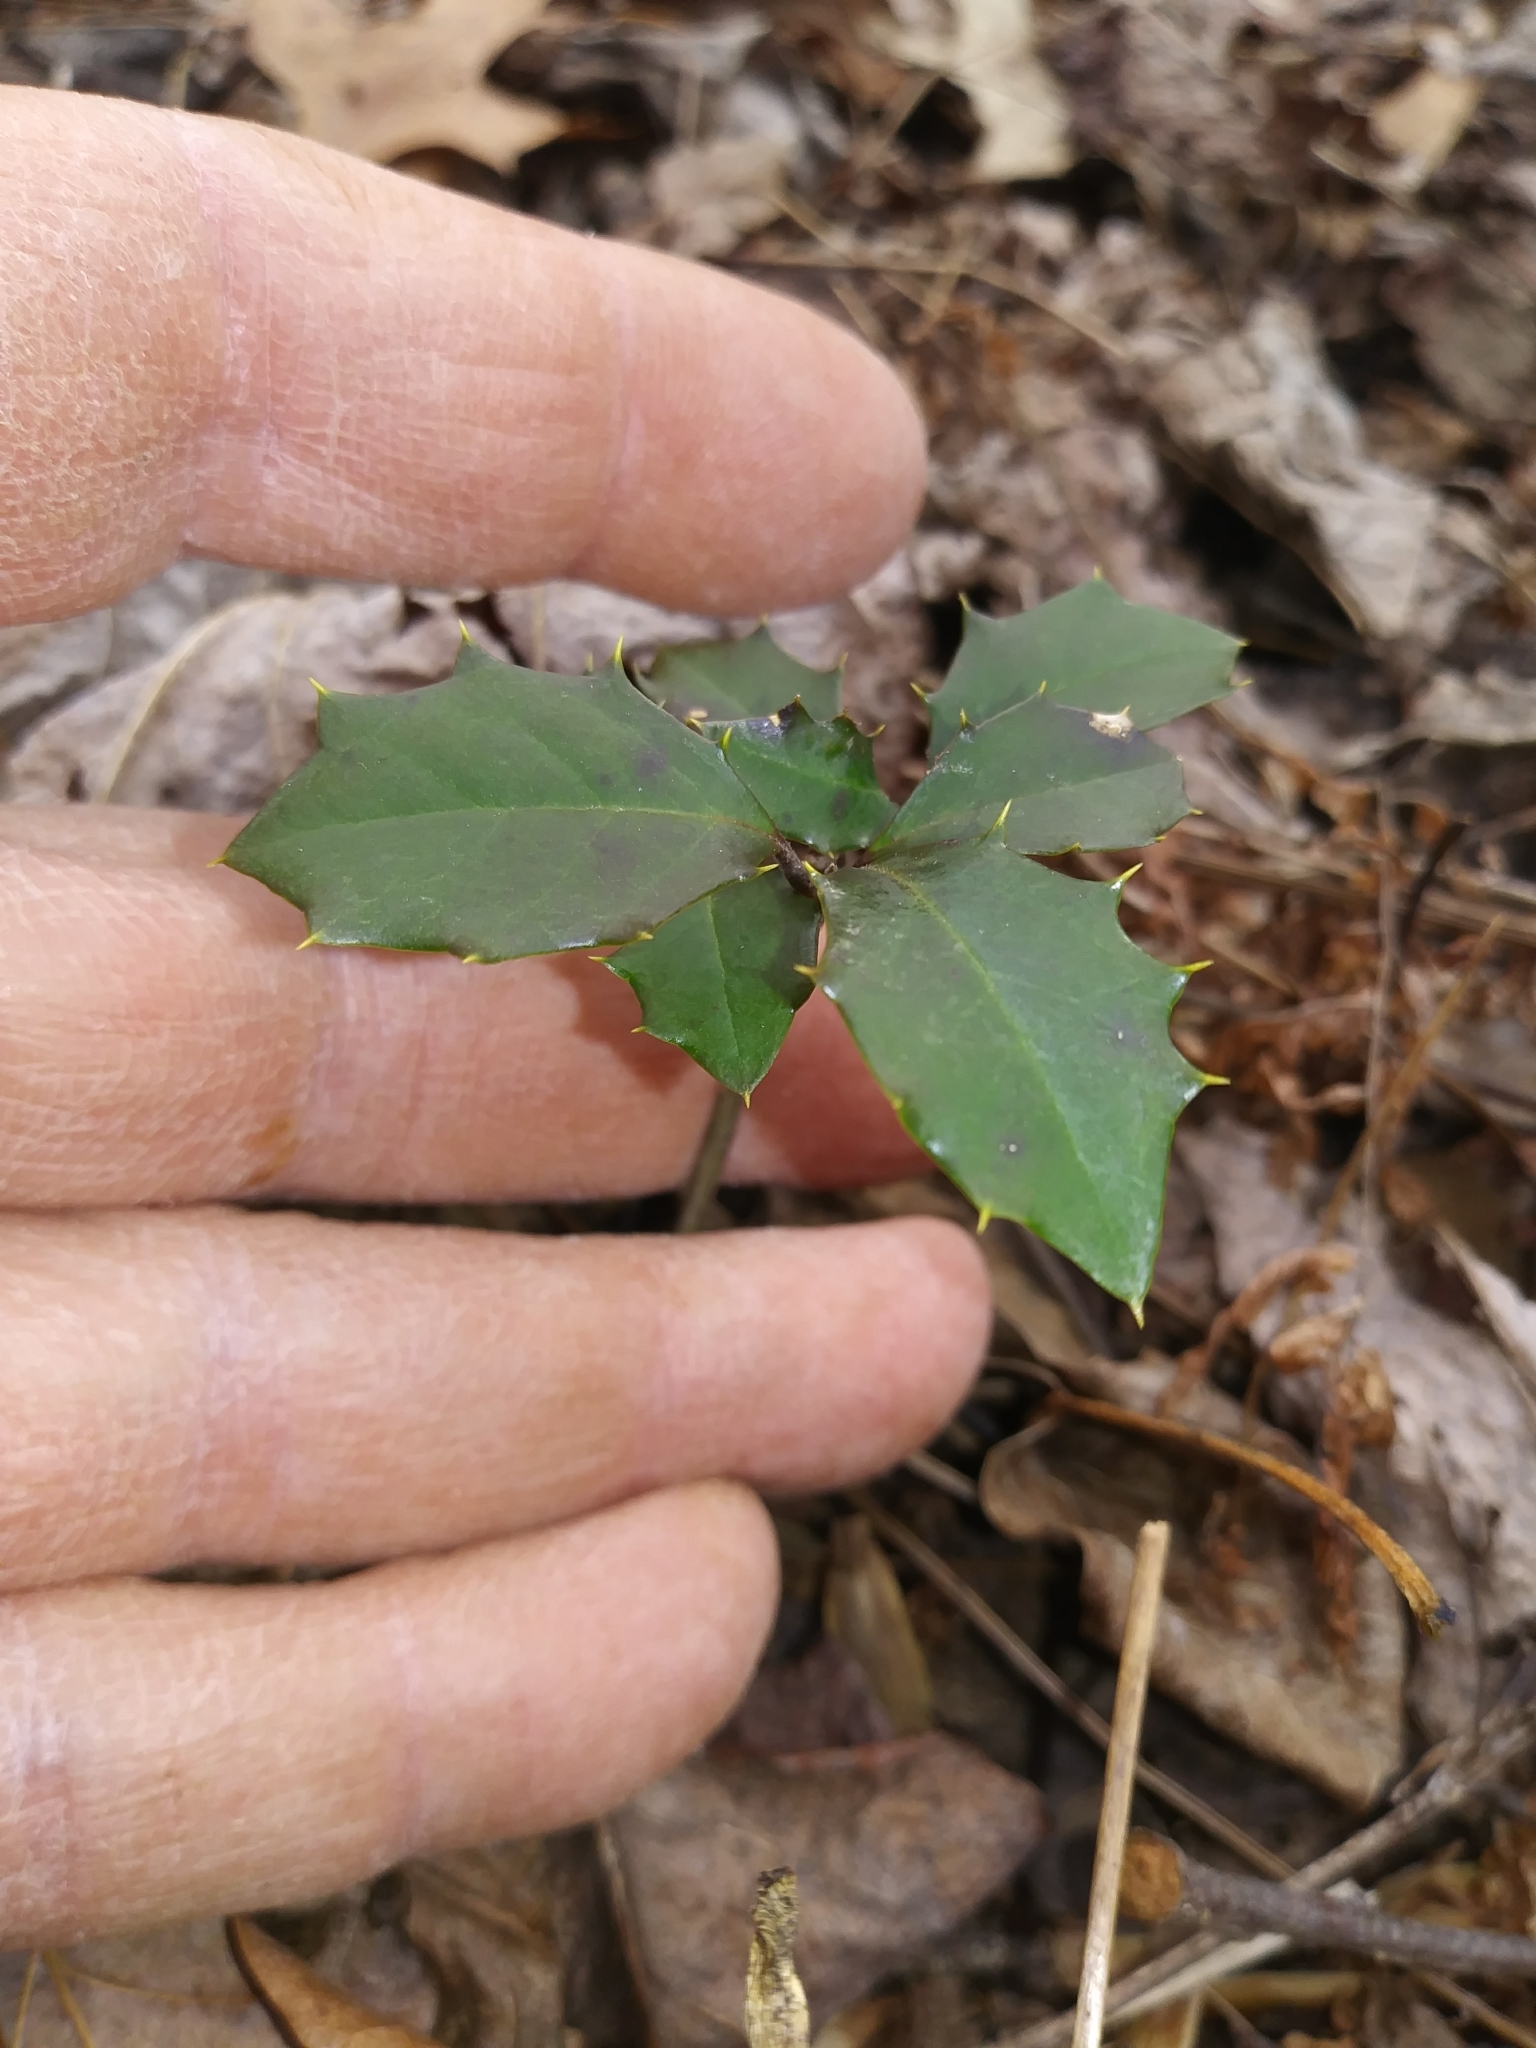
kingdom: Plantae
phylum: Tracheophyta
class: Magnoliopsida
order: Aquifoliales
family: Aquifoliaceae
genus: Ilex
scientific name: Ilex opaca
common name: American holly
